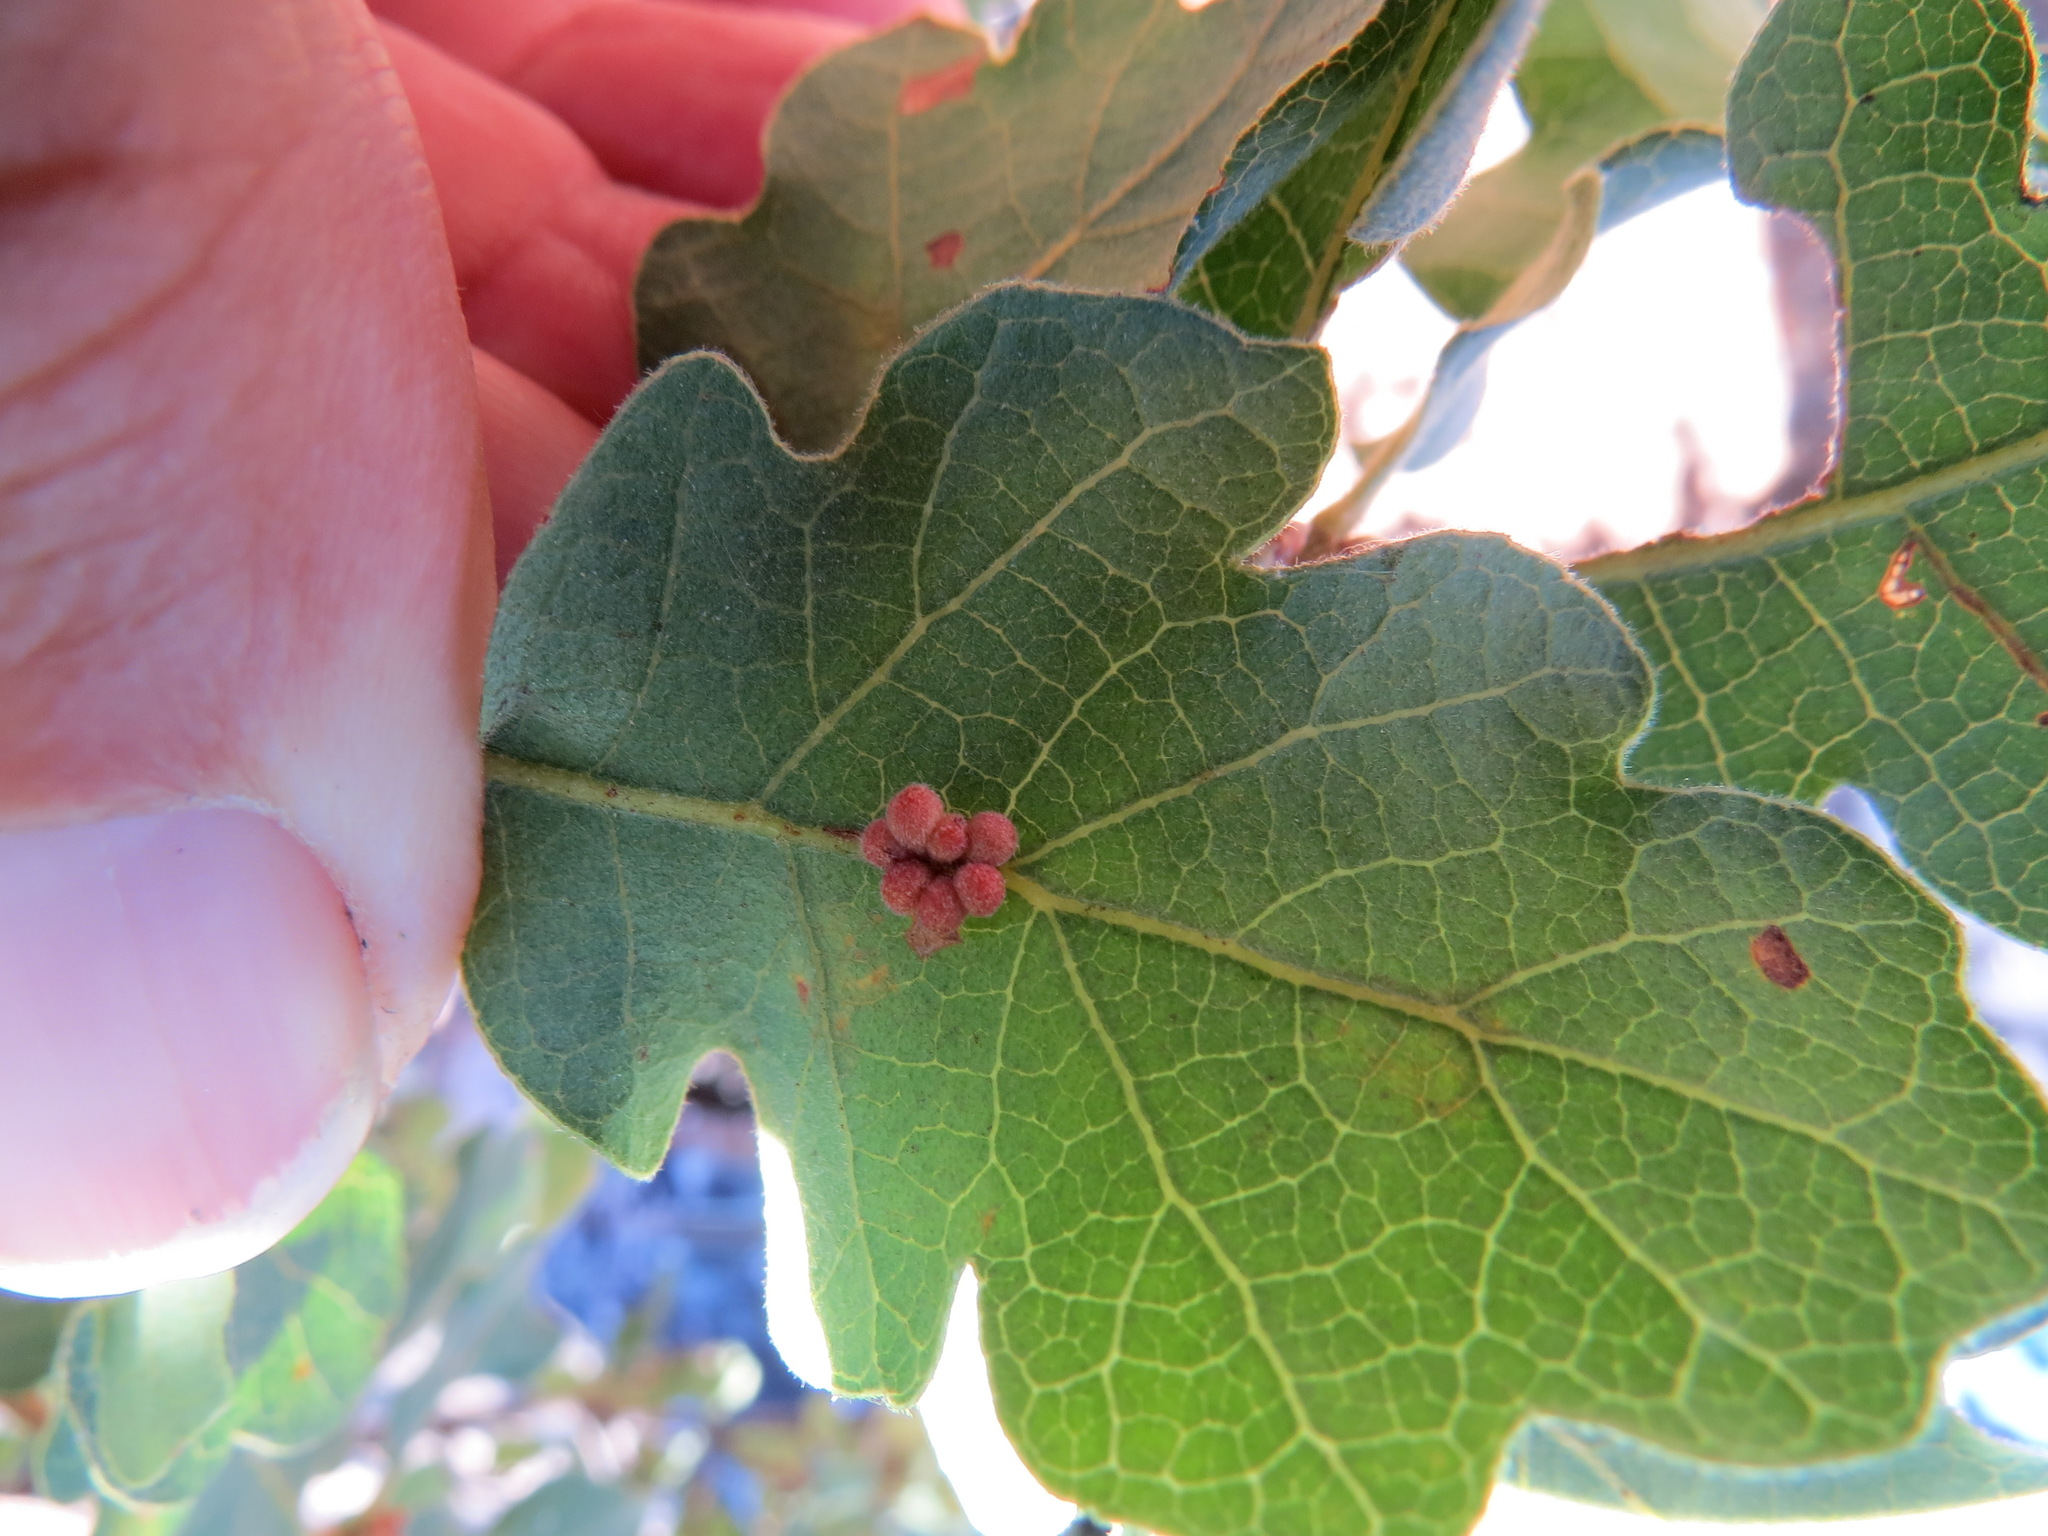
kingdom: Animalia
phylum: Arthropoda
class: Insecta
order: Hymenoptera
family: Cynipidae
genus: Andricus
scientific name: Andricus
